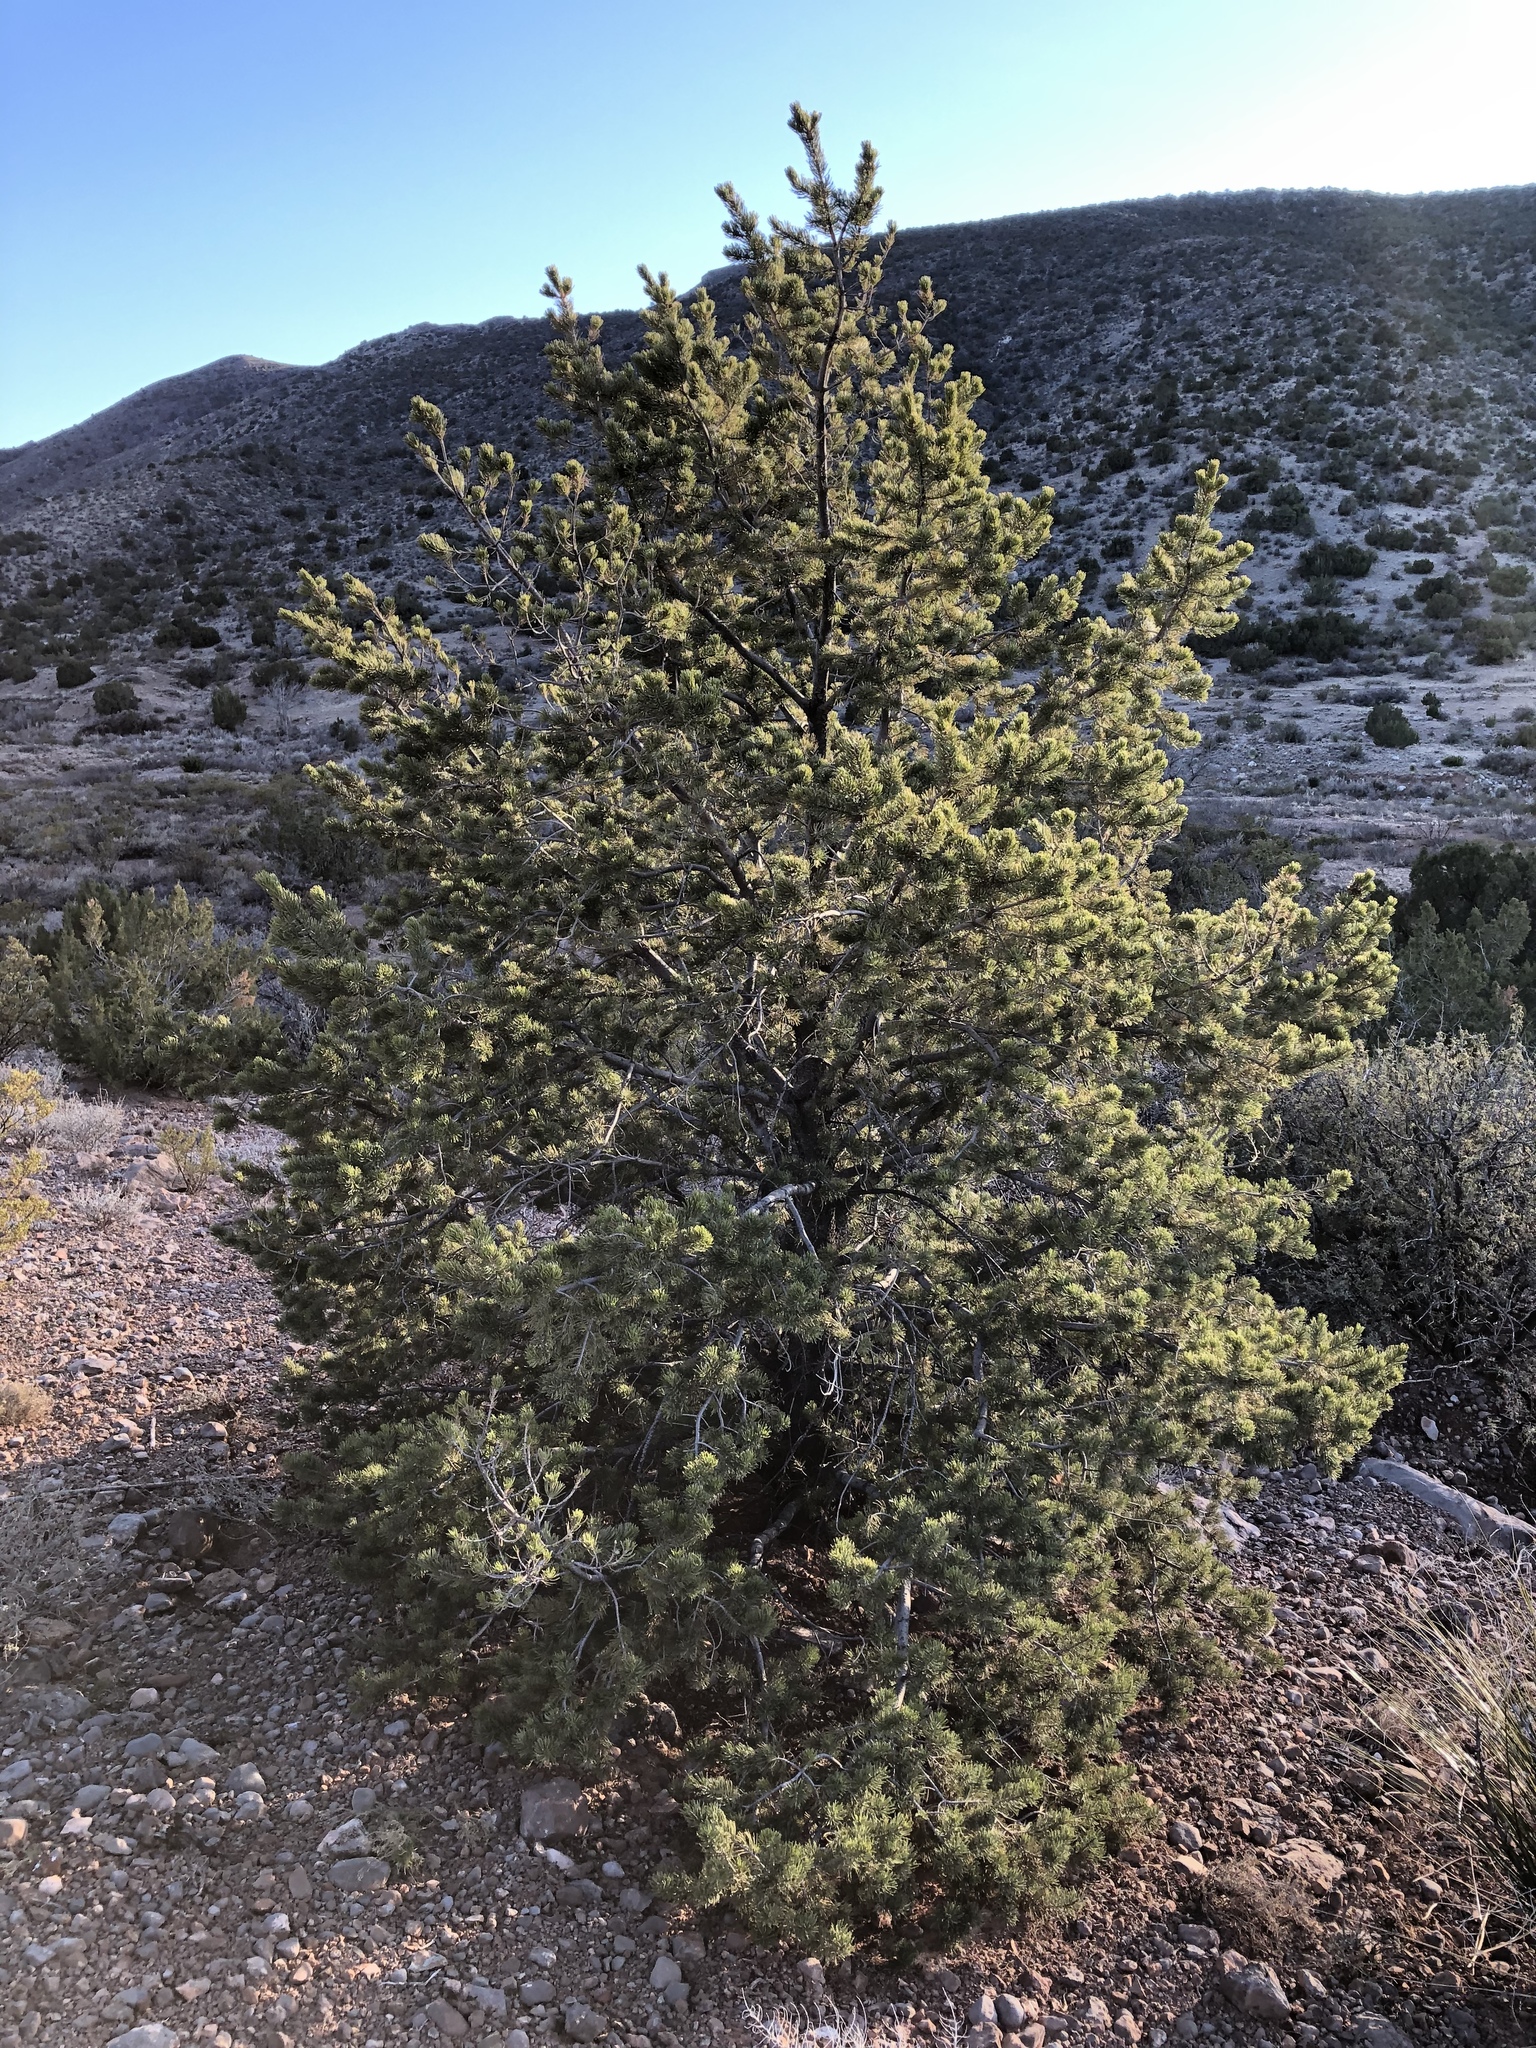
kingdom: Plantae
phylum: Tracheophyta
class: Pinopsida
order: Pinales
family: Pinaceae
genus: Pinus
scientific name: Pinus edulis
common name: Colorado pinyon
